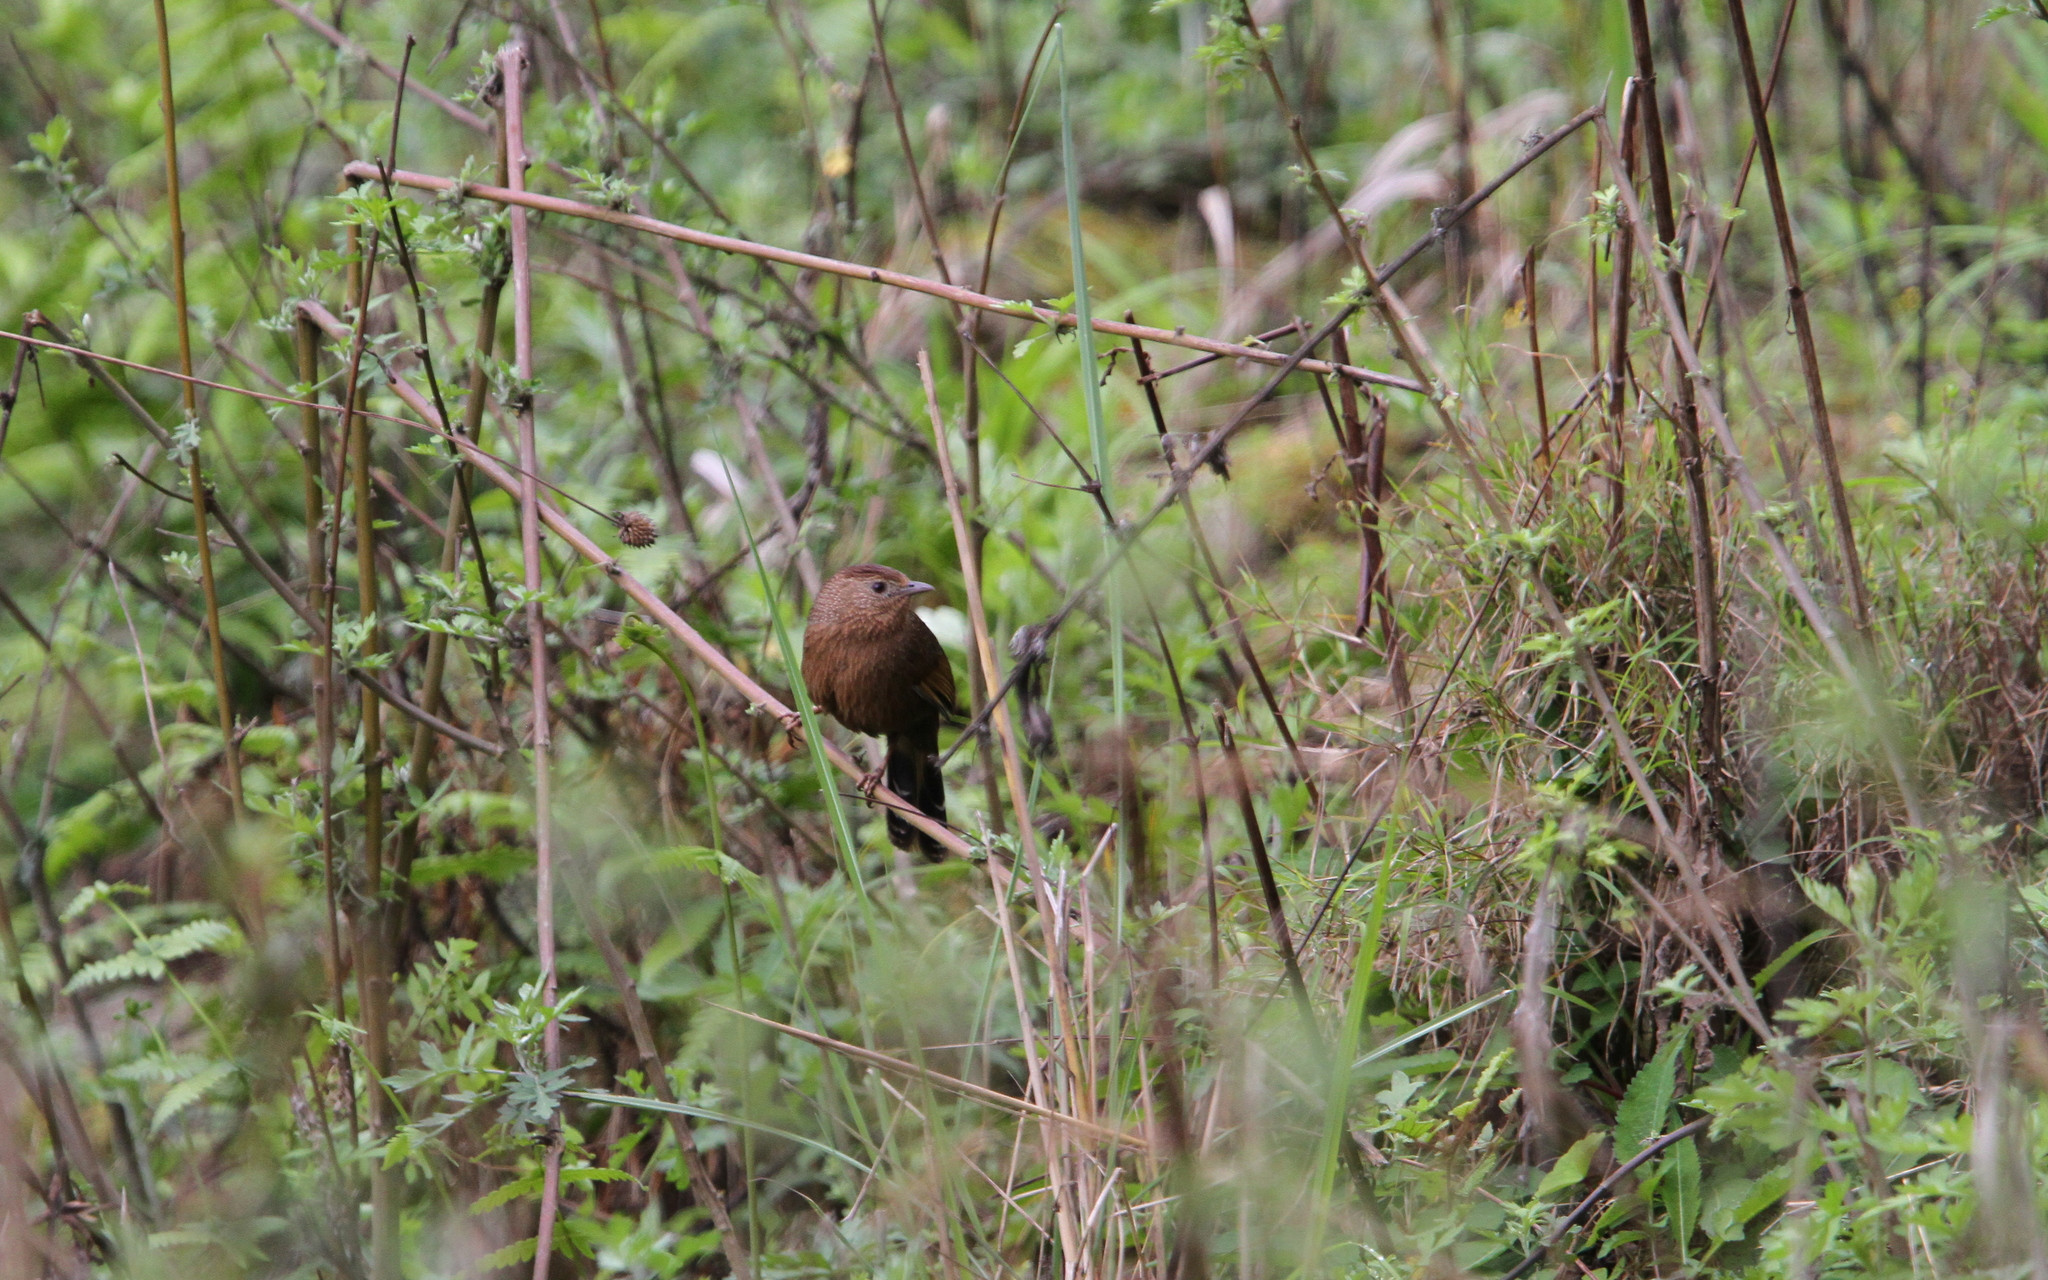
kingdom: Animalia
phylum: Chordata
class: Aves
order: Passeriformes
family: Leiothrichidae
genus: Trochalopteron
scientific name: Trochalopteron imbricatum
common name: Bhutan laughingthrush
